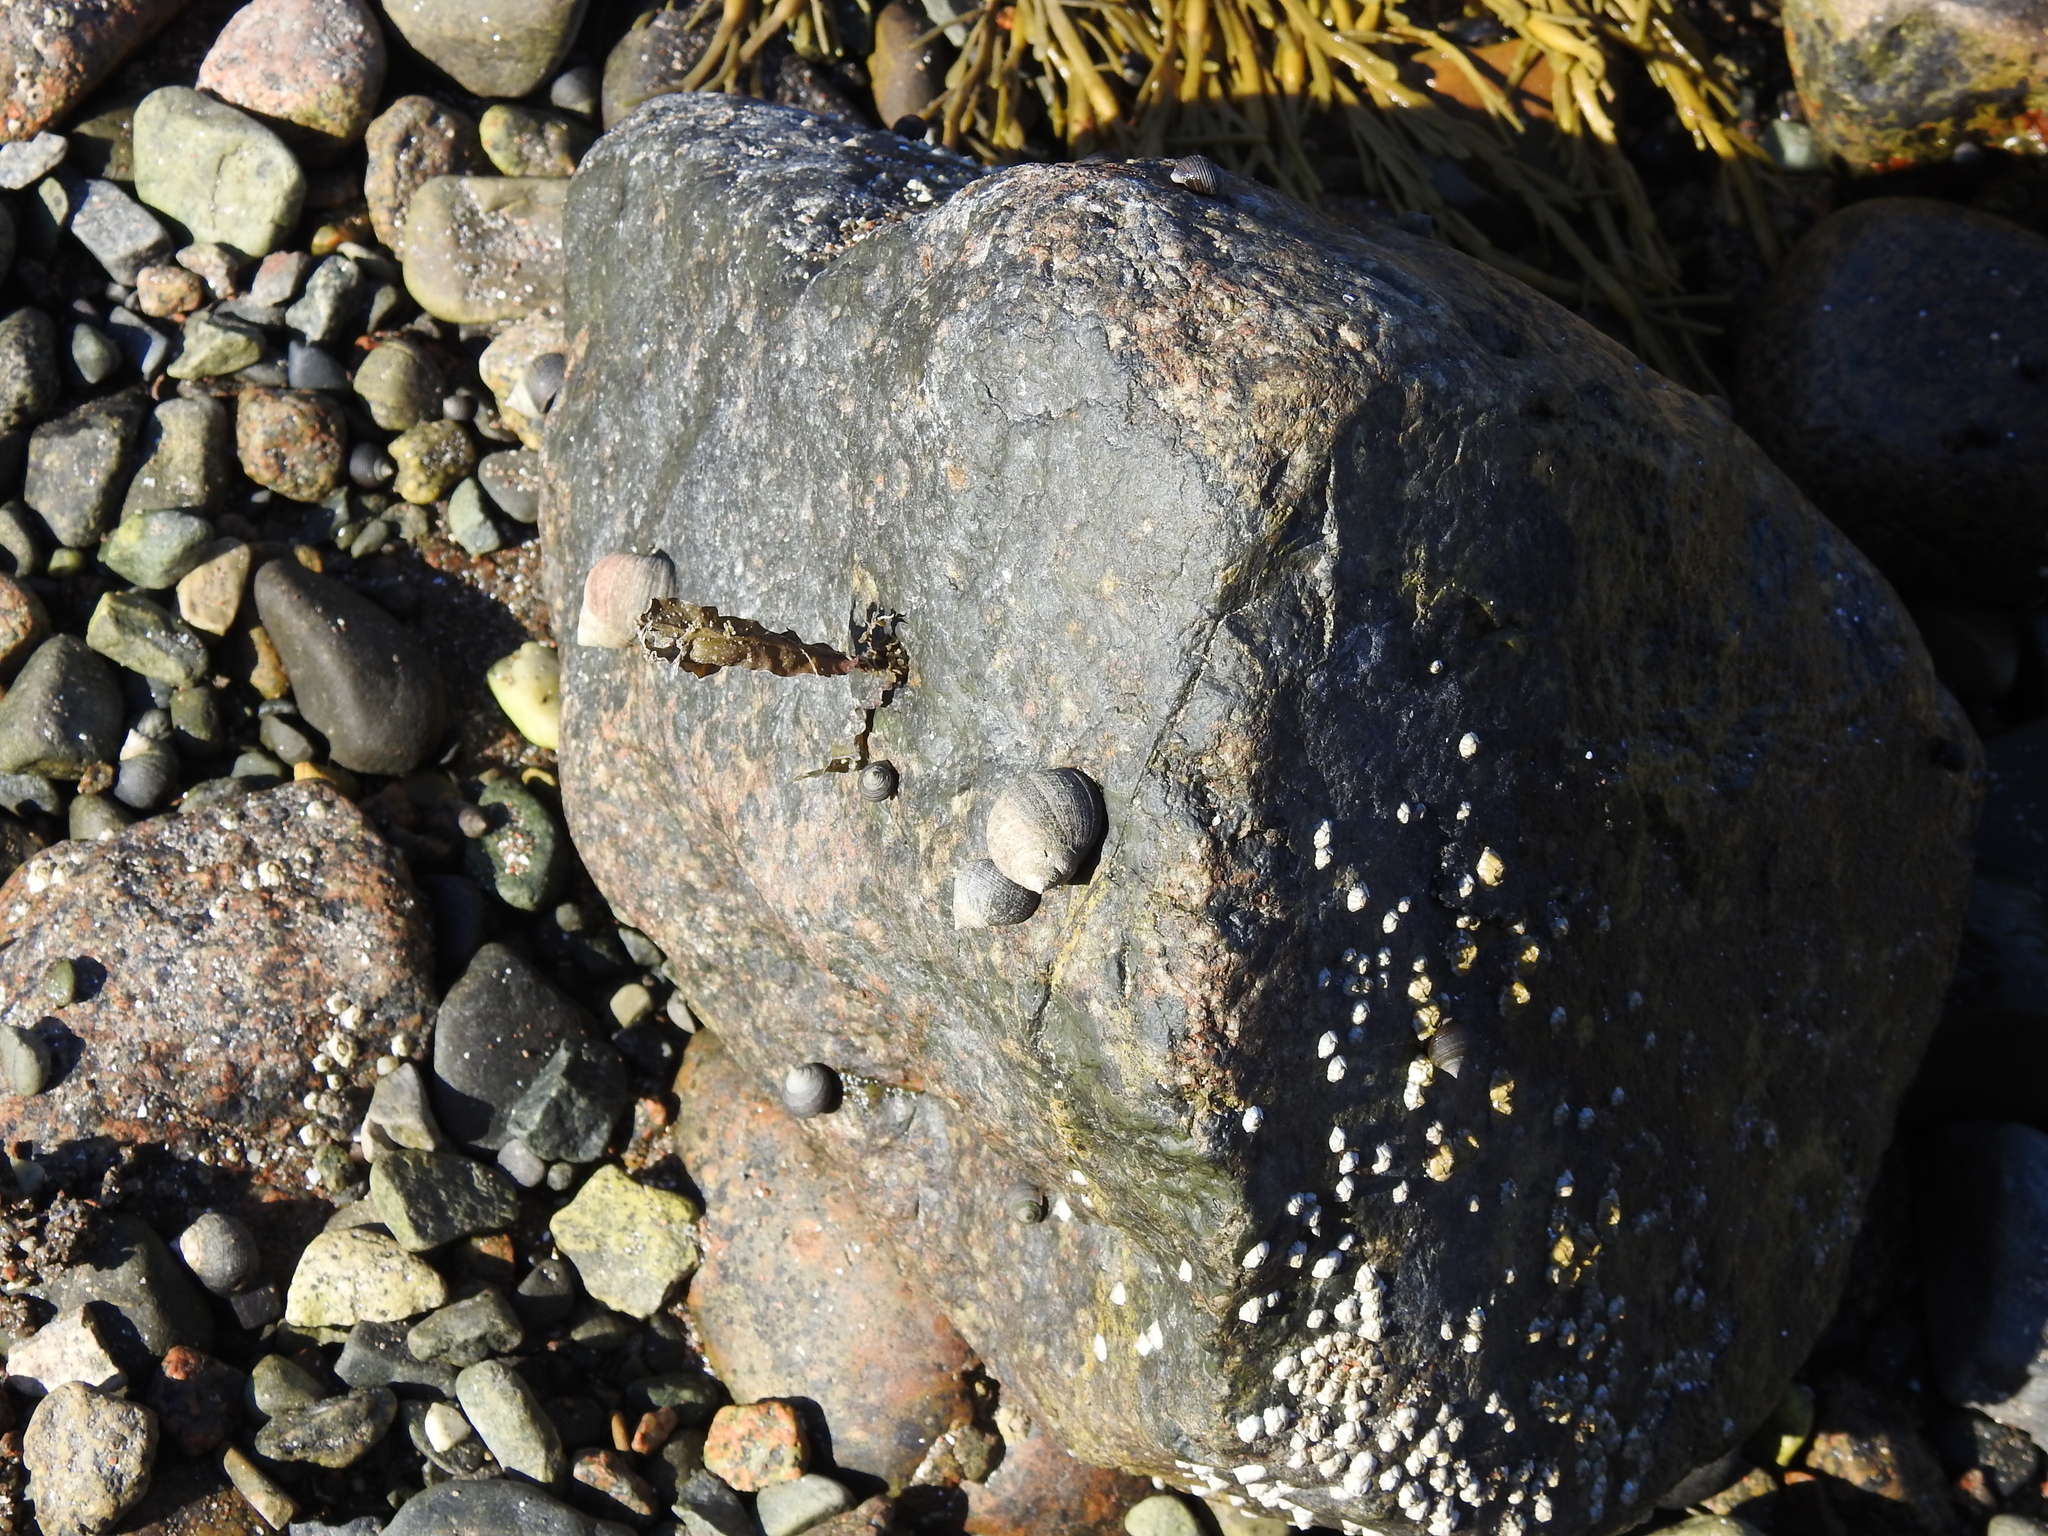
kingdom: Animalia
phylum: Mollusca
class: Gastropoda
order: Littorinimorpha
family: Littorinidae
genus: Littorina
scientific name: Littorina littorea
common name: Common periwinkle
